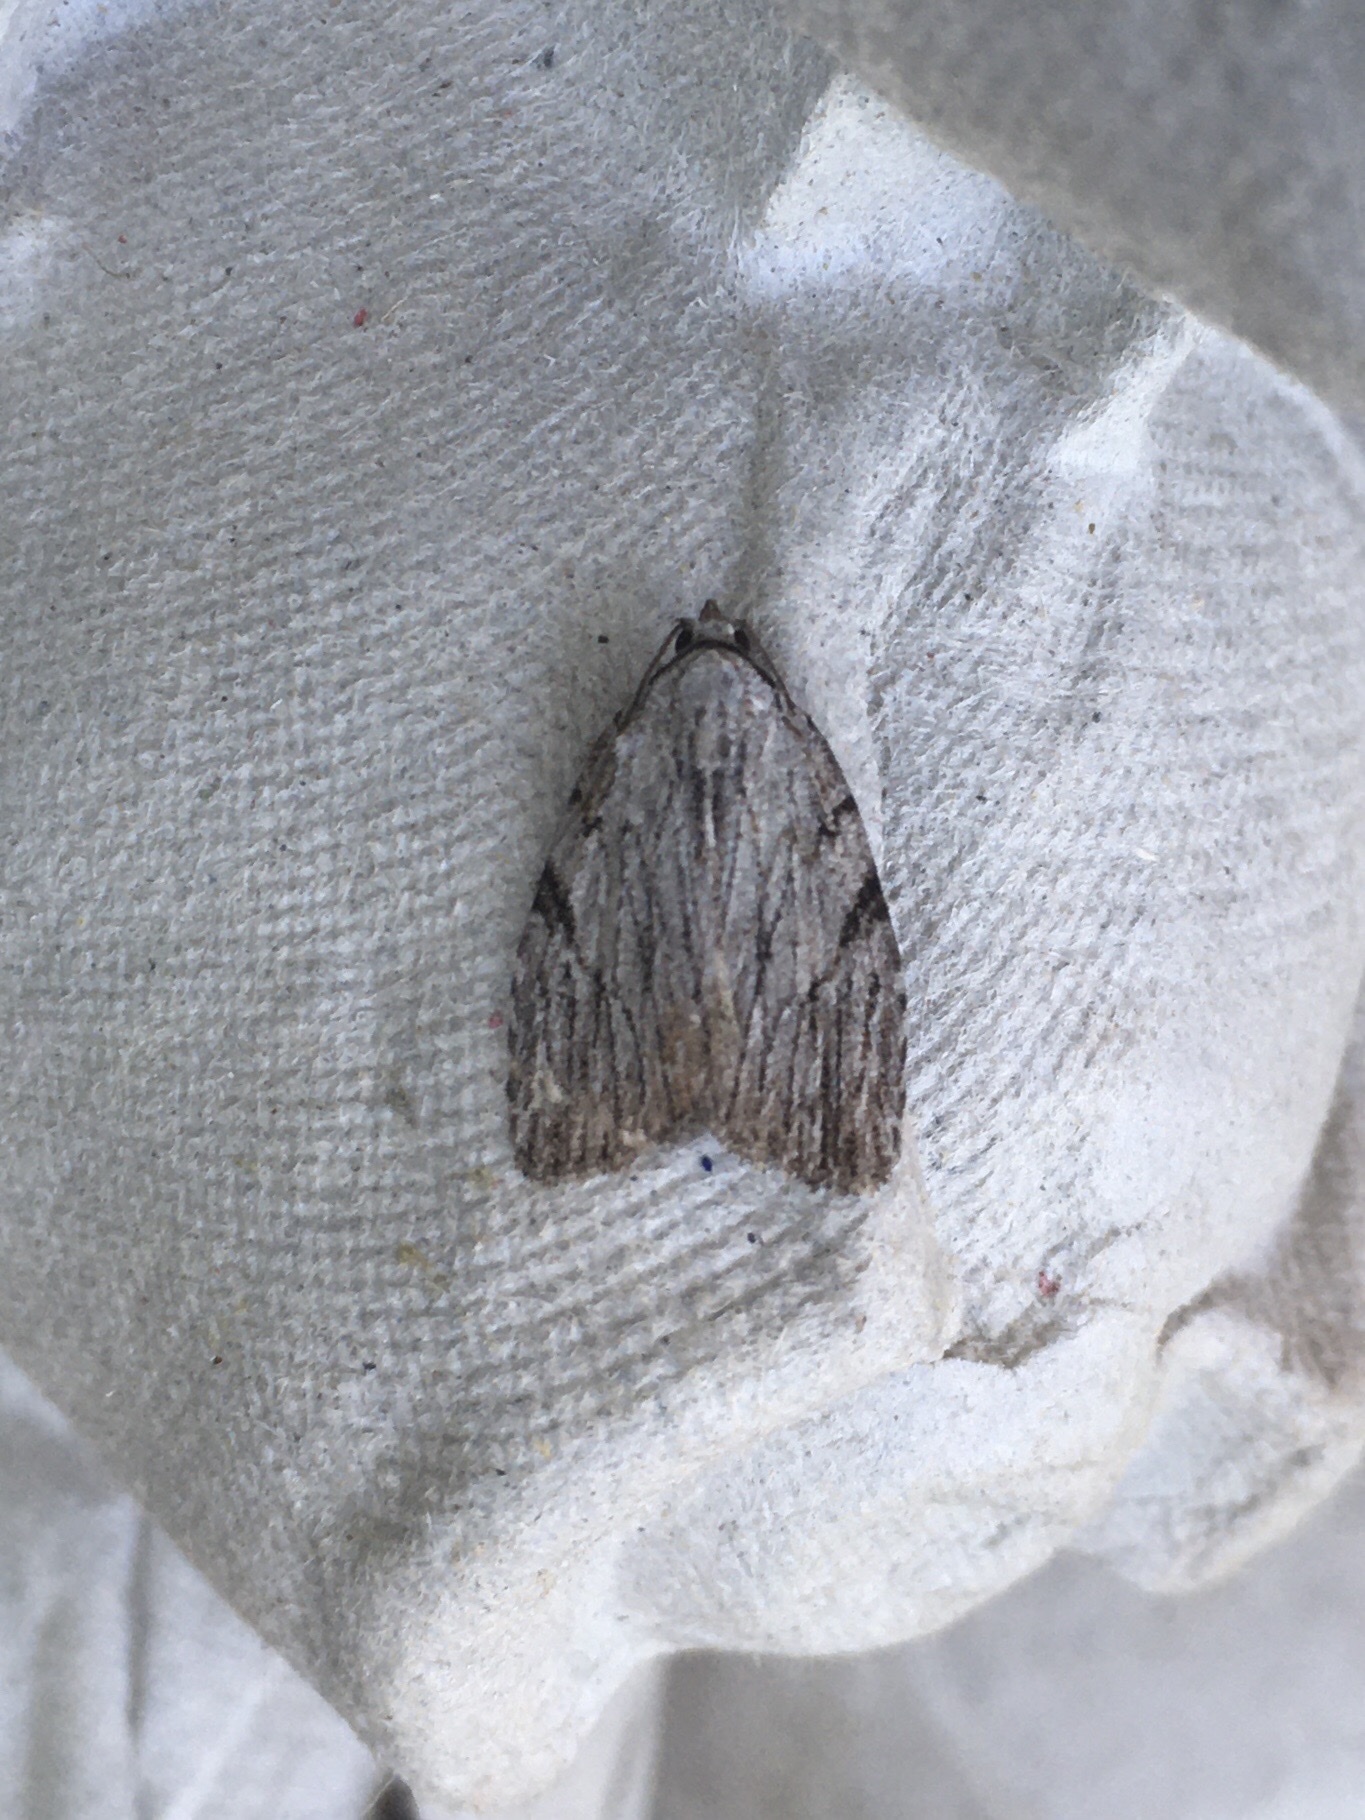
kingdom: Animalia
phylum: Arthropoda
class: Insecta
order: Lepidoptera
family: Noctuidae
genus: Balsa
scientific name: Balsa tristrigella
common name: Three-lined balsa moth
